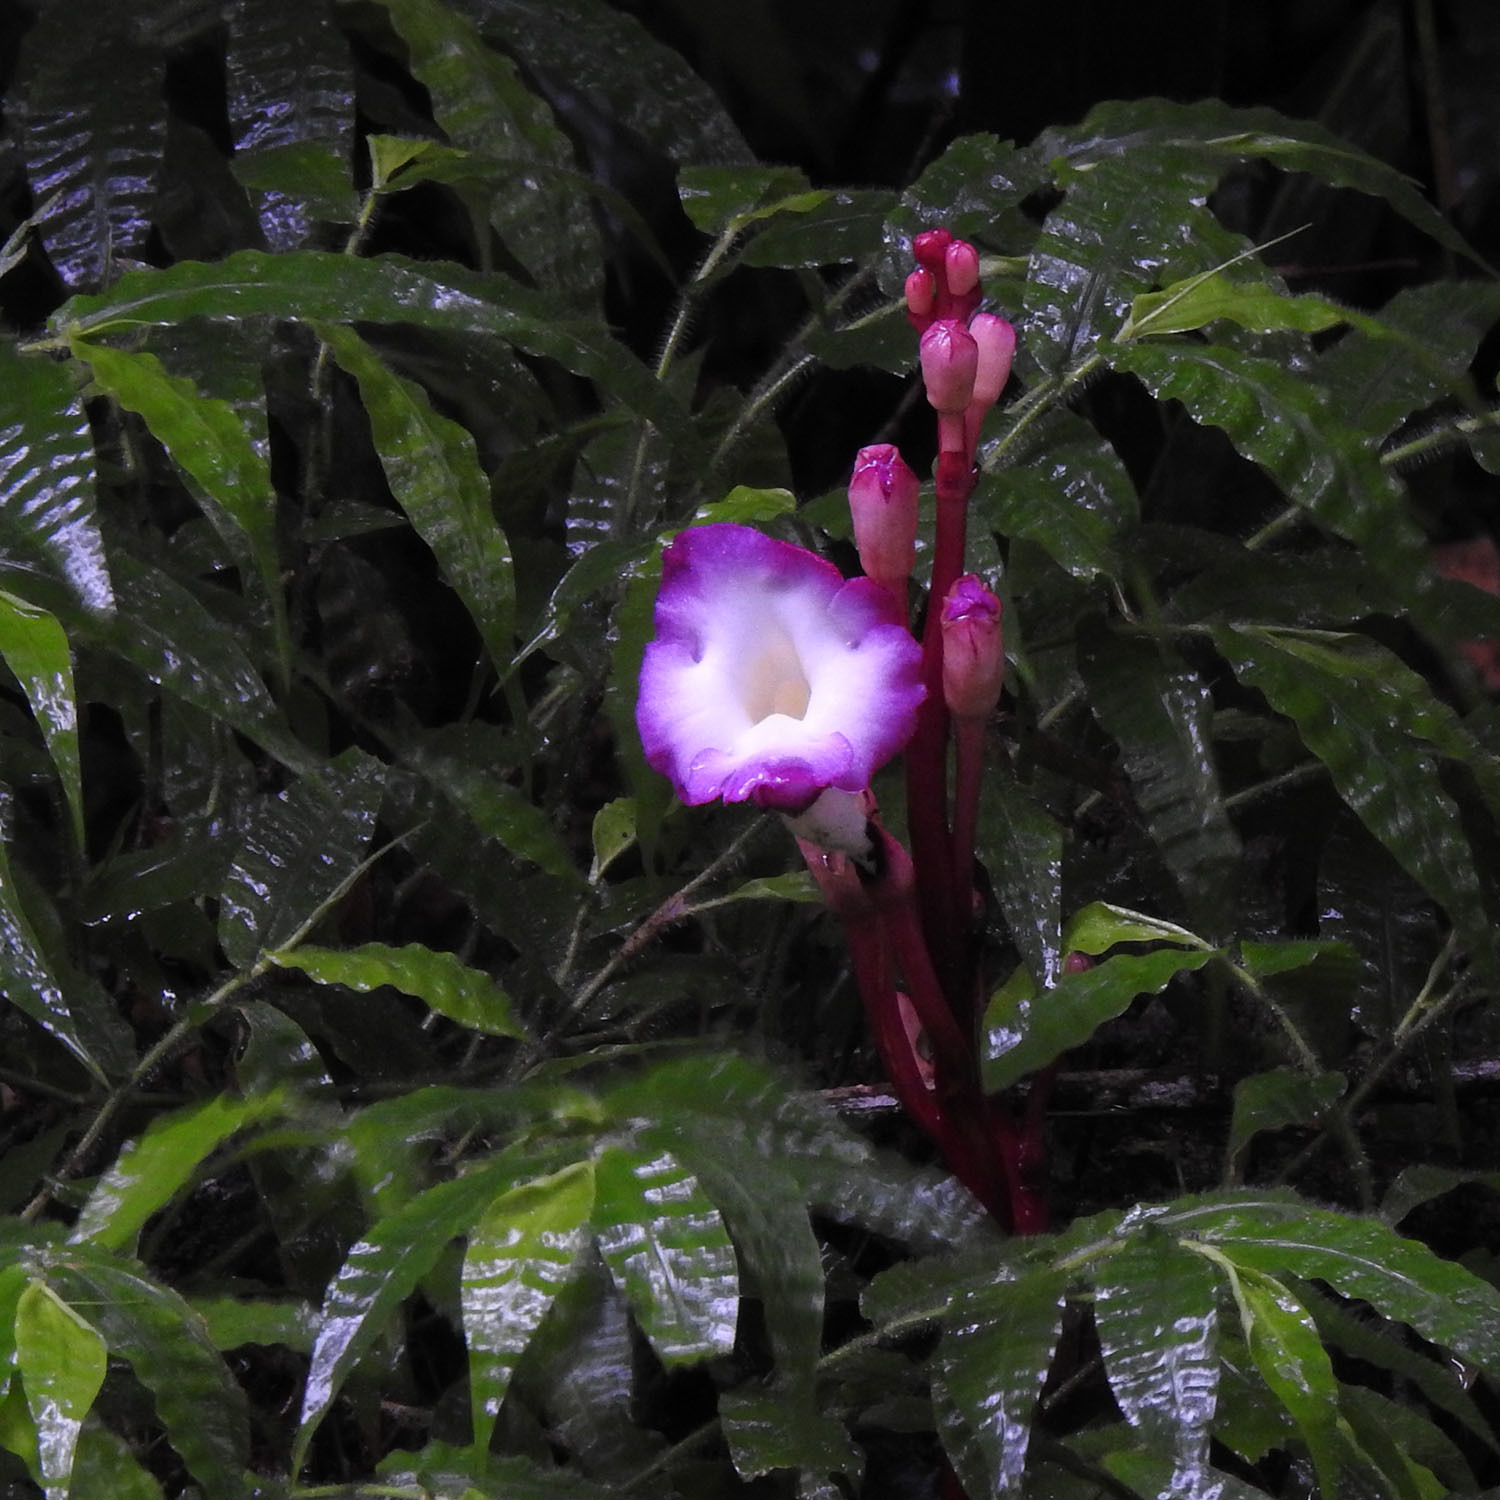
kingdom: Plantae
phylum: Tracheophyta
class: Magnoliopsida
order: Lamiales
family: Orobanchaceae
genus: Christisonia
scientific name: Christisonia tubulosa
